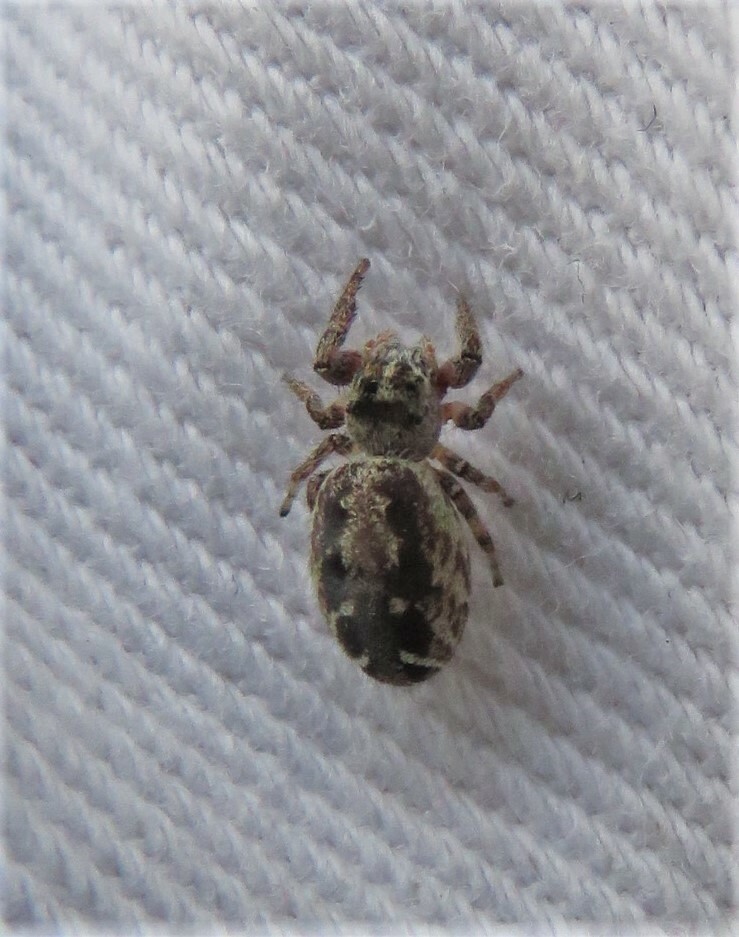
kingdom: Animalia
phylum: Arthropoda
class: Arachnida
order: Araneae
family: Salticidae
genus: Eris
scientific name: Eris militaris
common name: Bronze jumper
